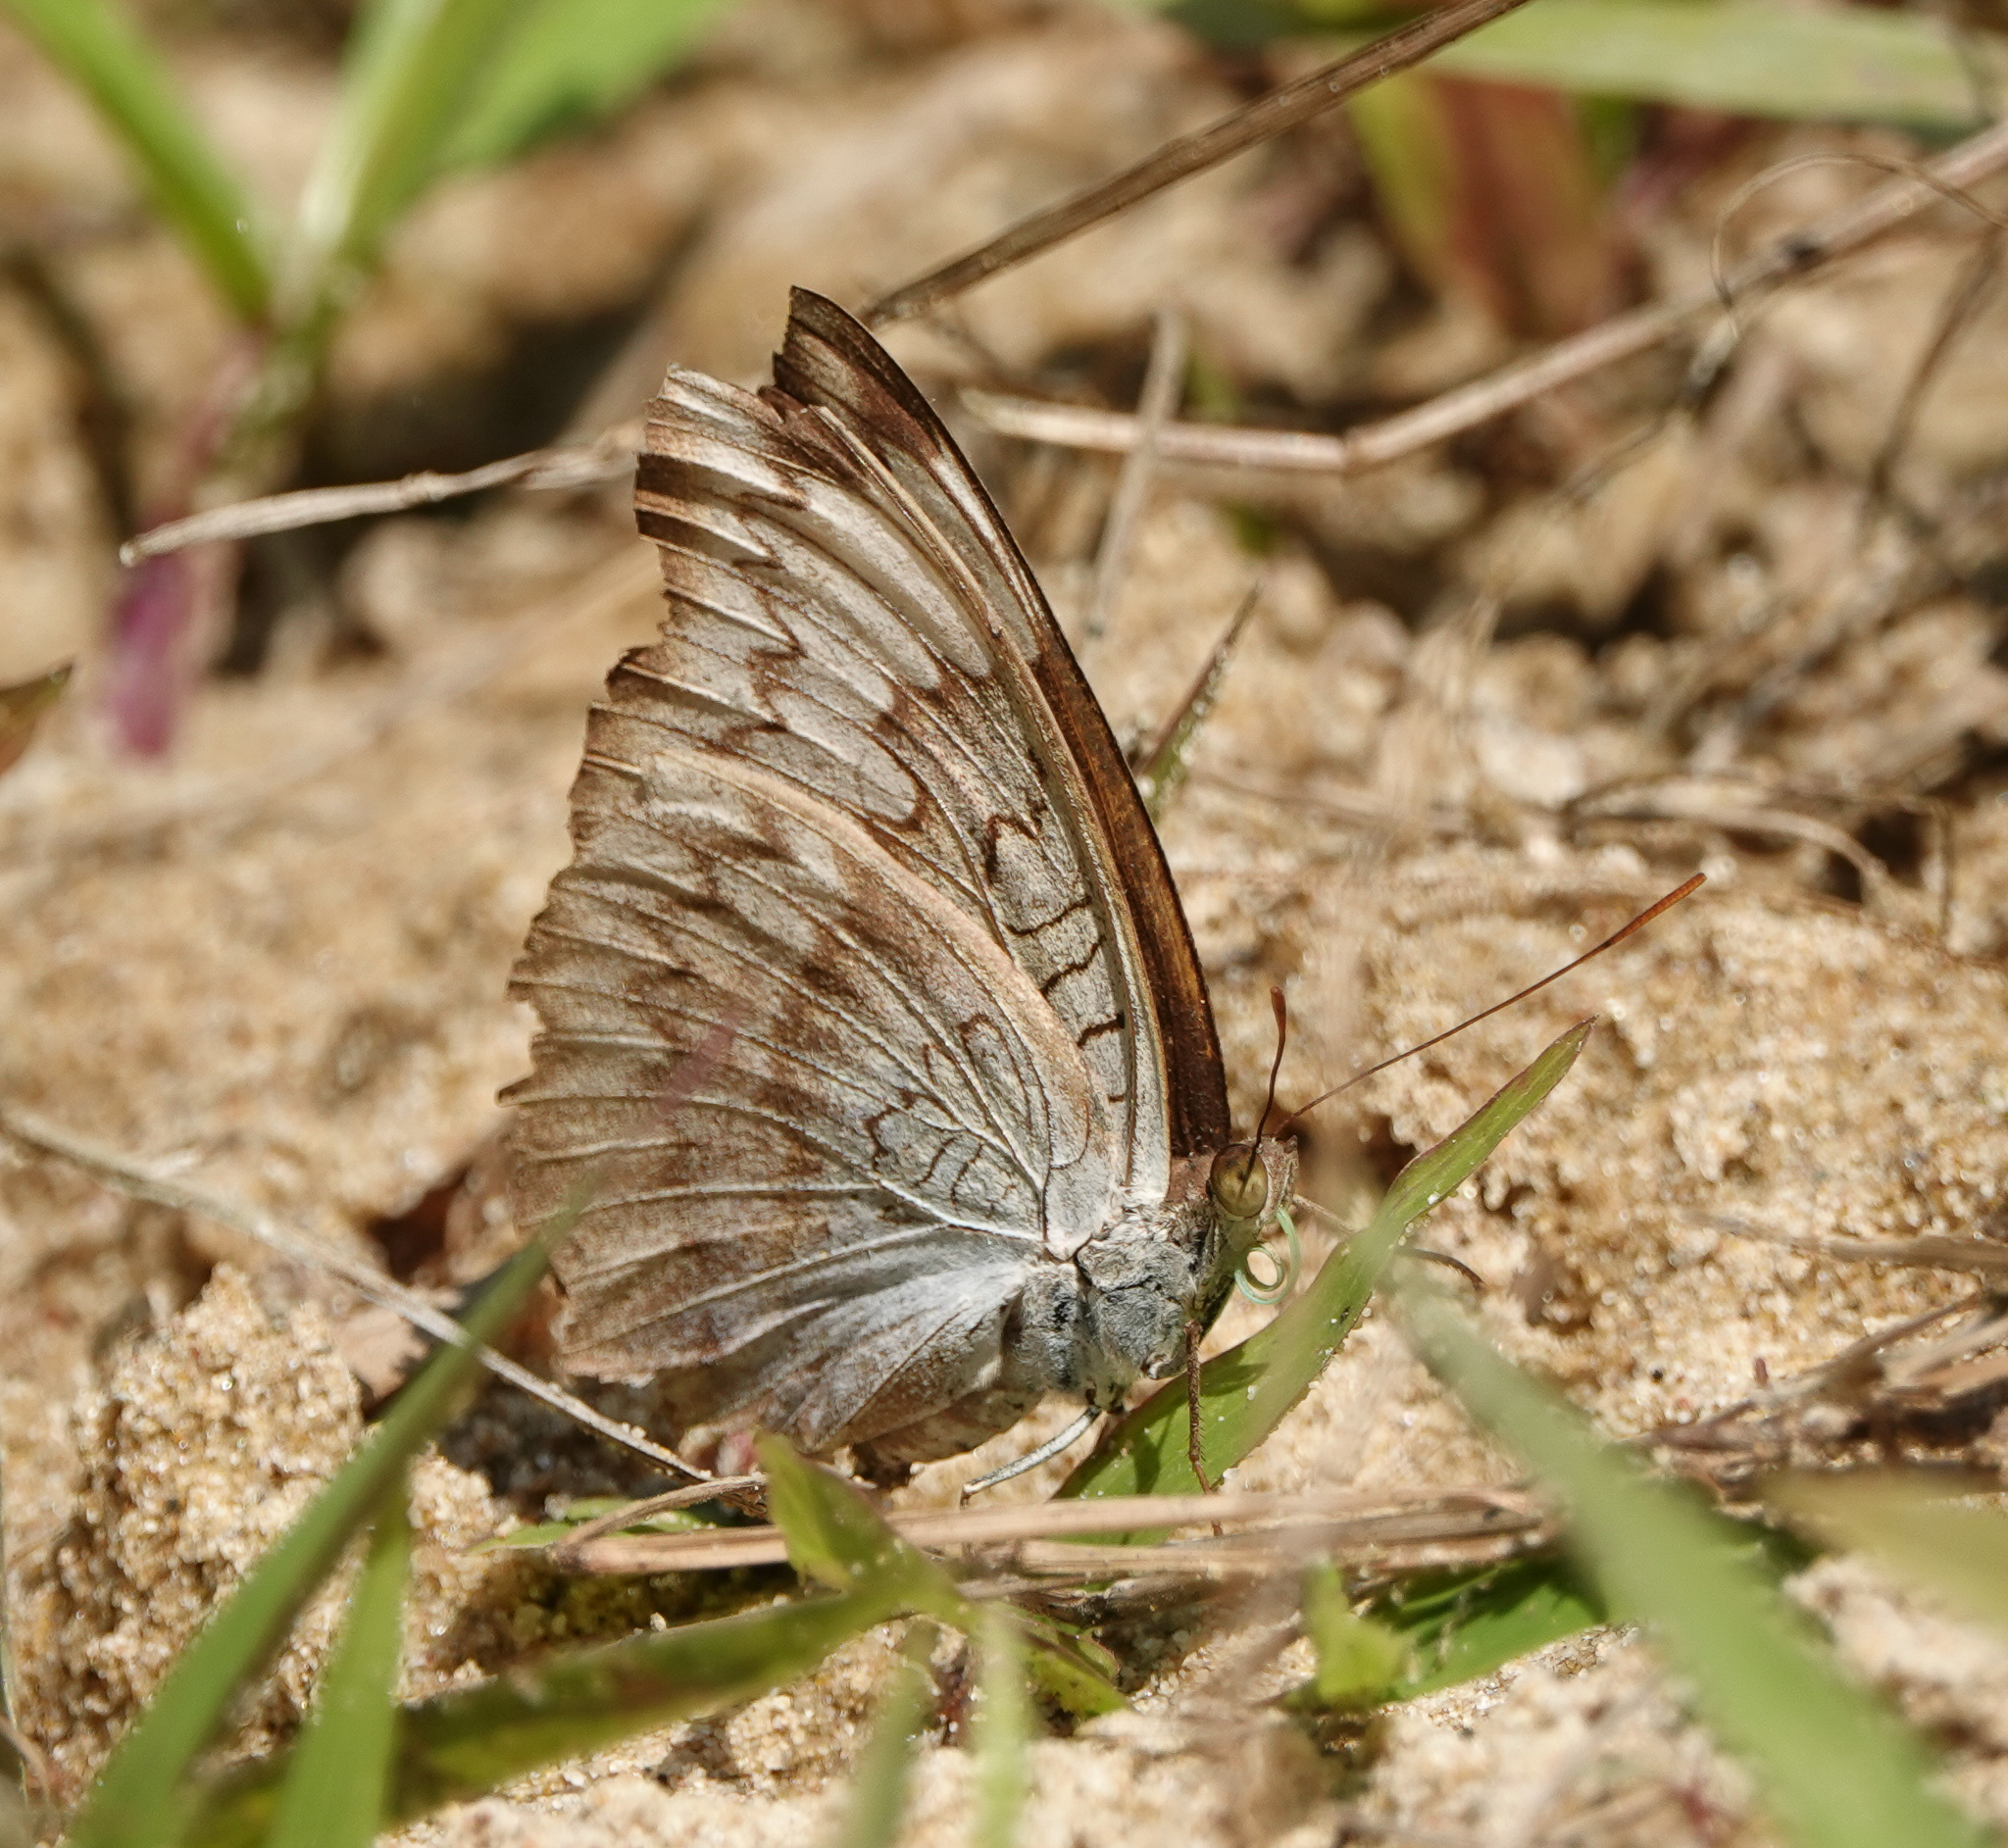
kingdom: Animalia
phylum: Arthropoda
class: Insecta
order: Lepidoptera
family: Nymphalidae
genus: Kallima
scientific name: Kallima sylvia
